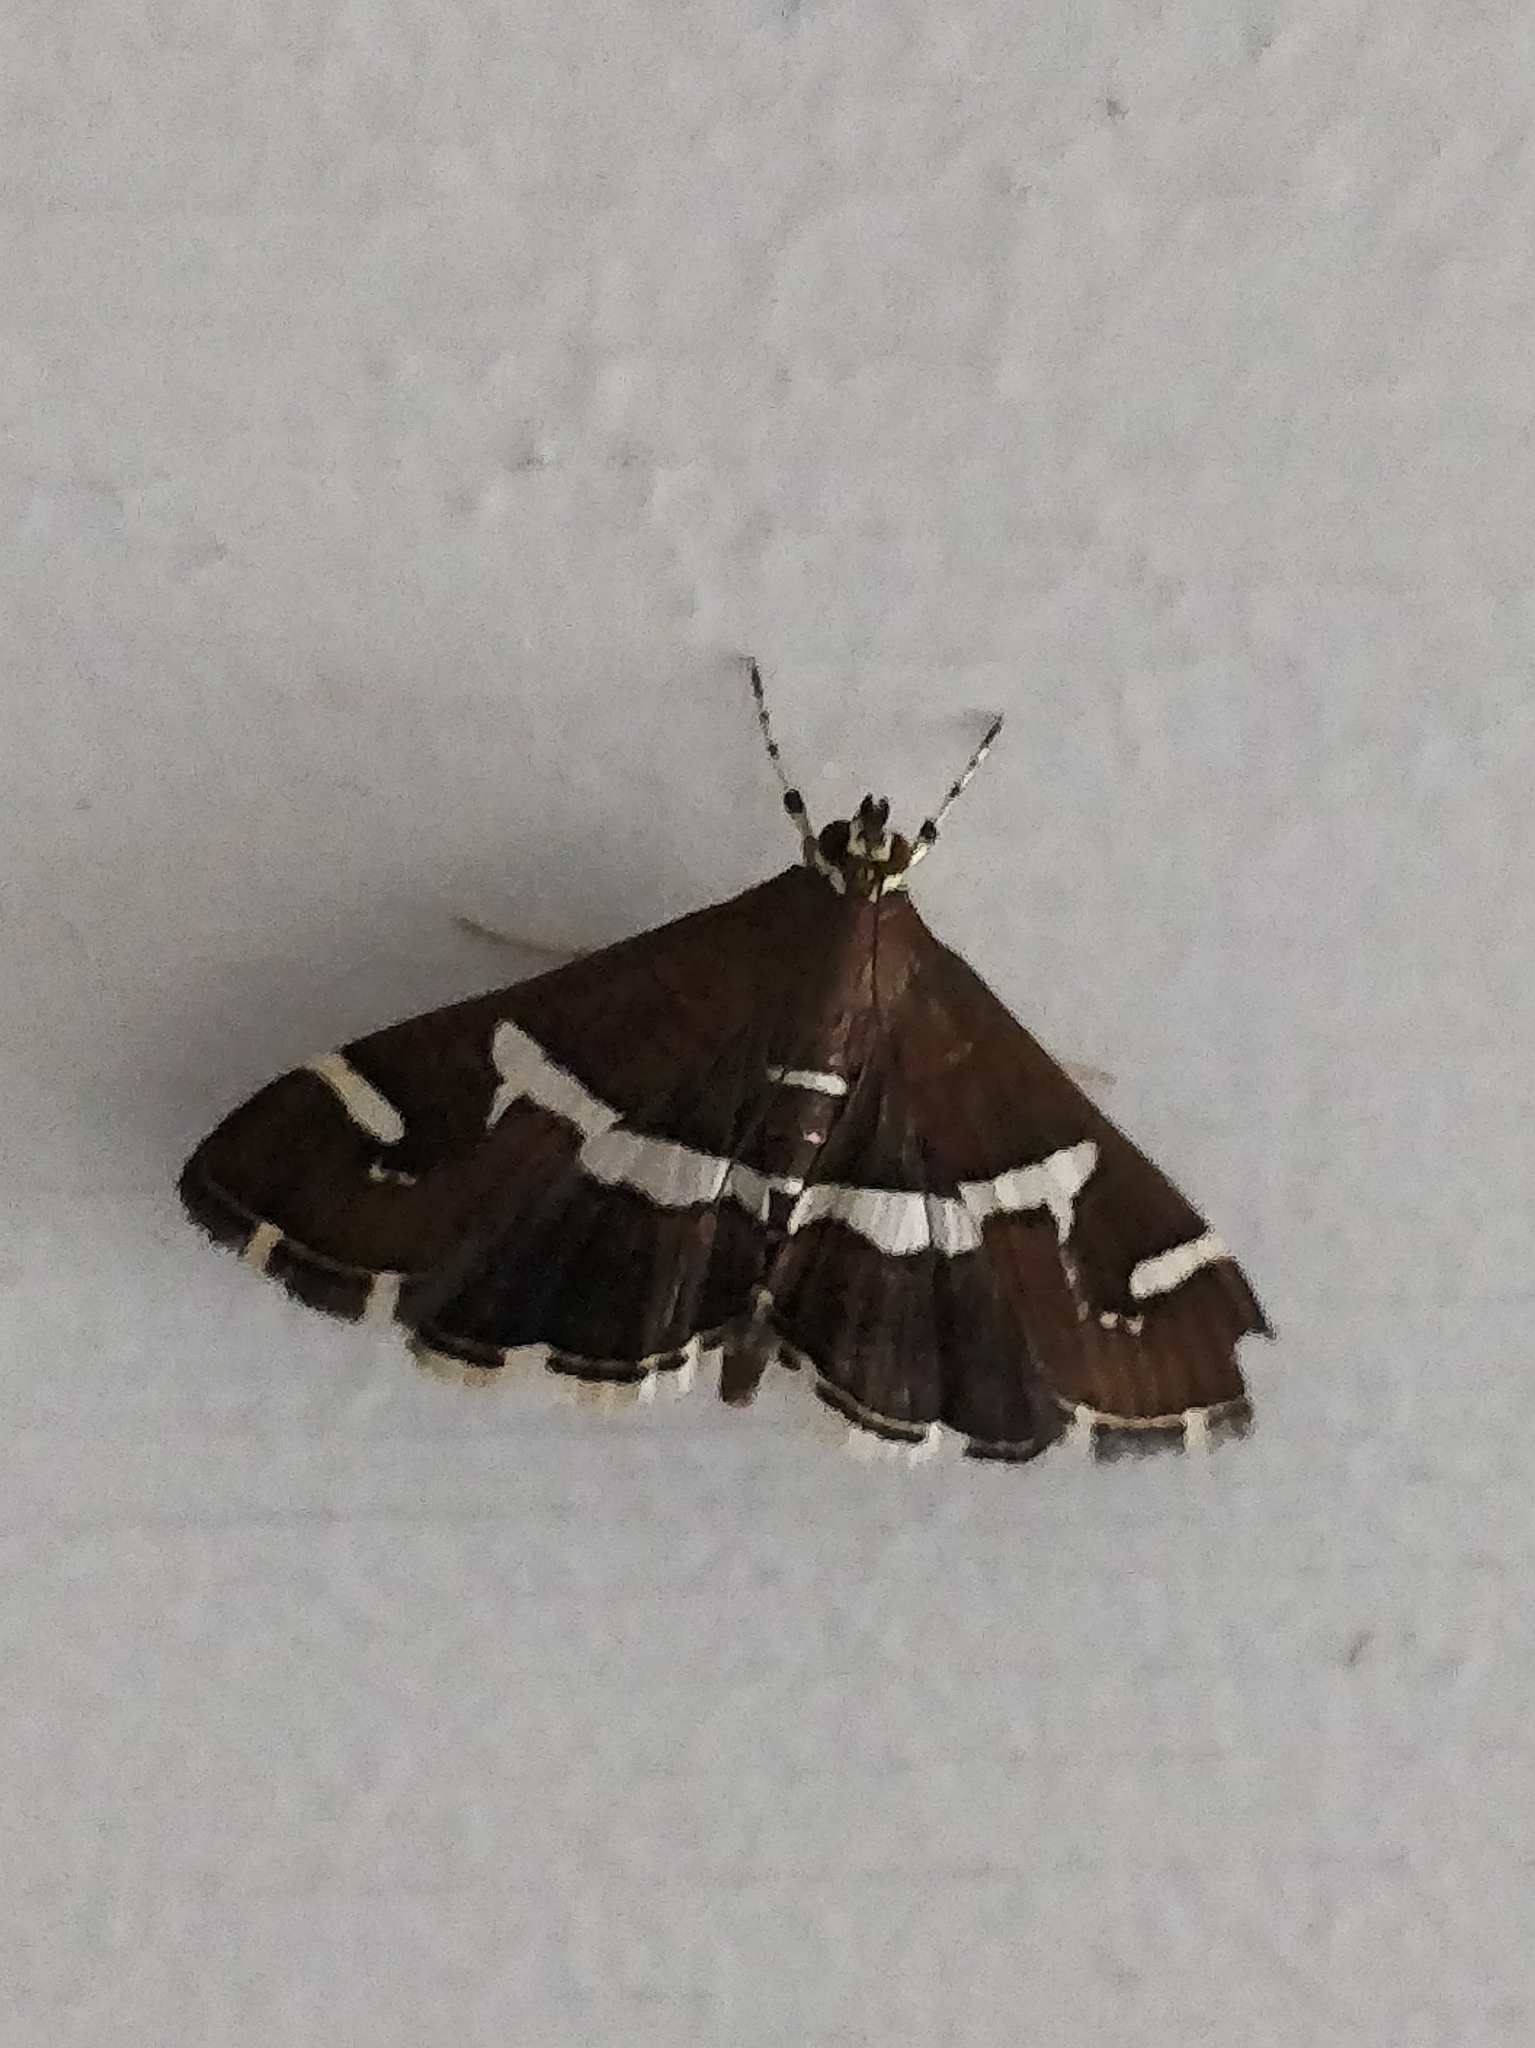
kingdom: Animalia
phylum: Arthropoda
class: Insecta
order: Lepidoptera
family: Crambidae
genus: Spoladea
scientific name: Spoladea recurvalis
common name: Beet webworm moth
